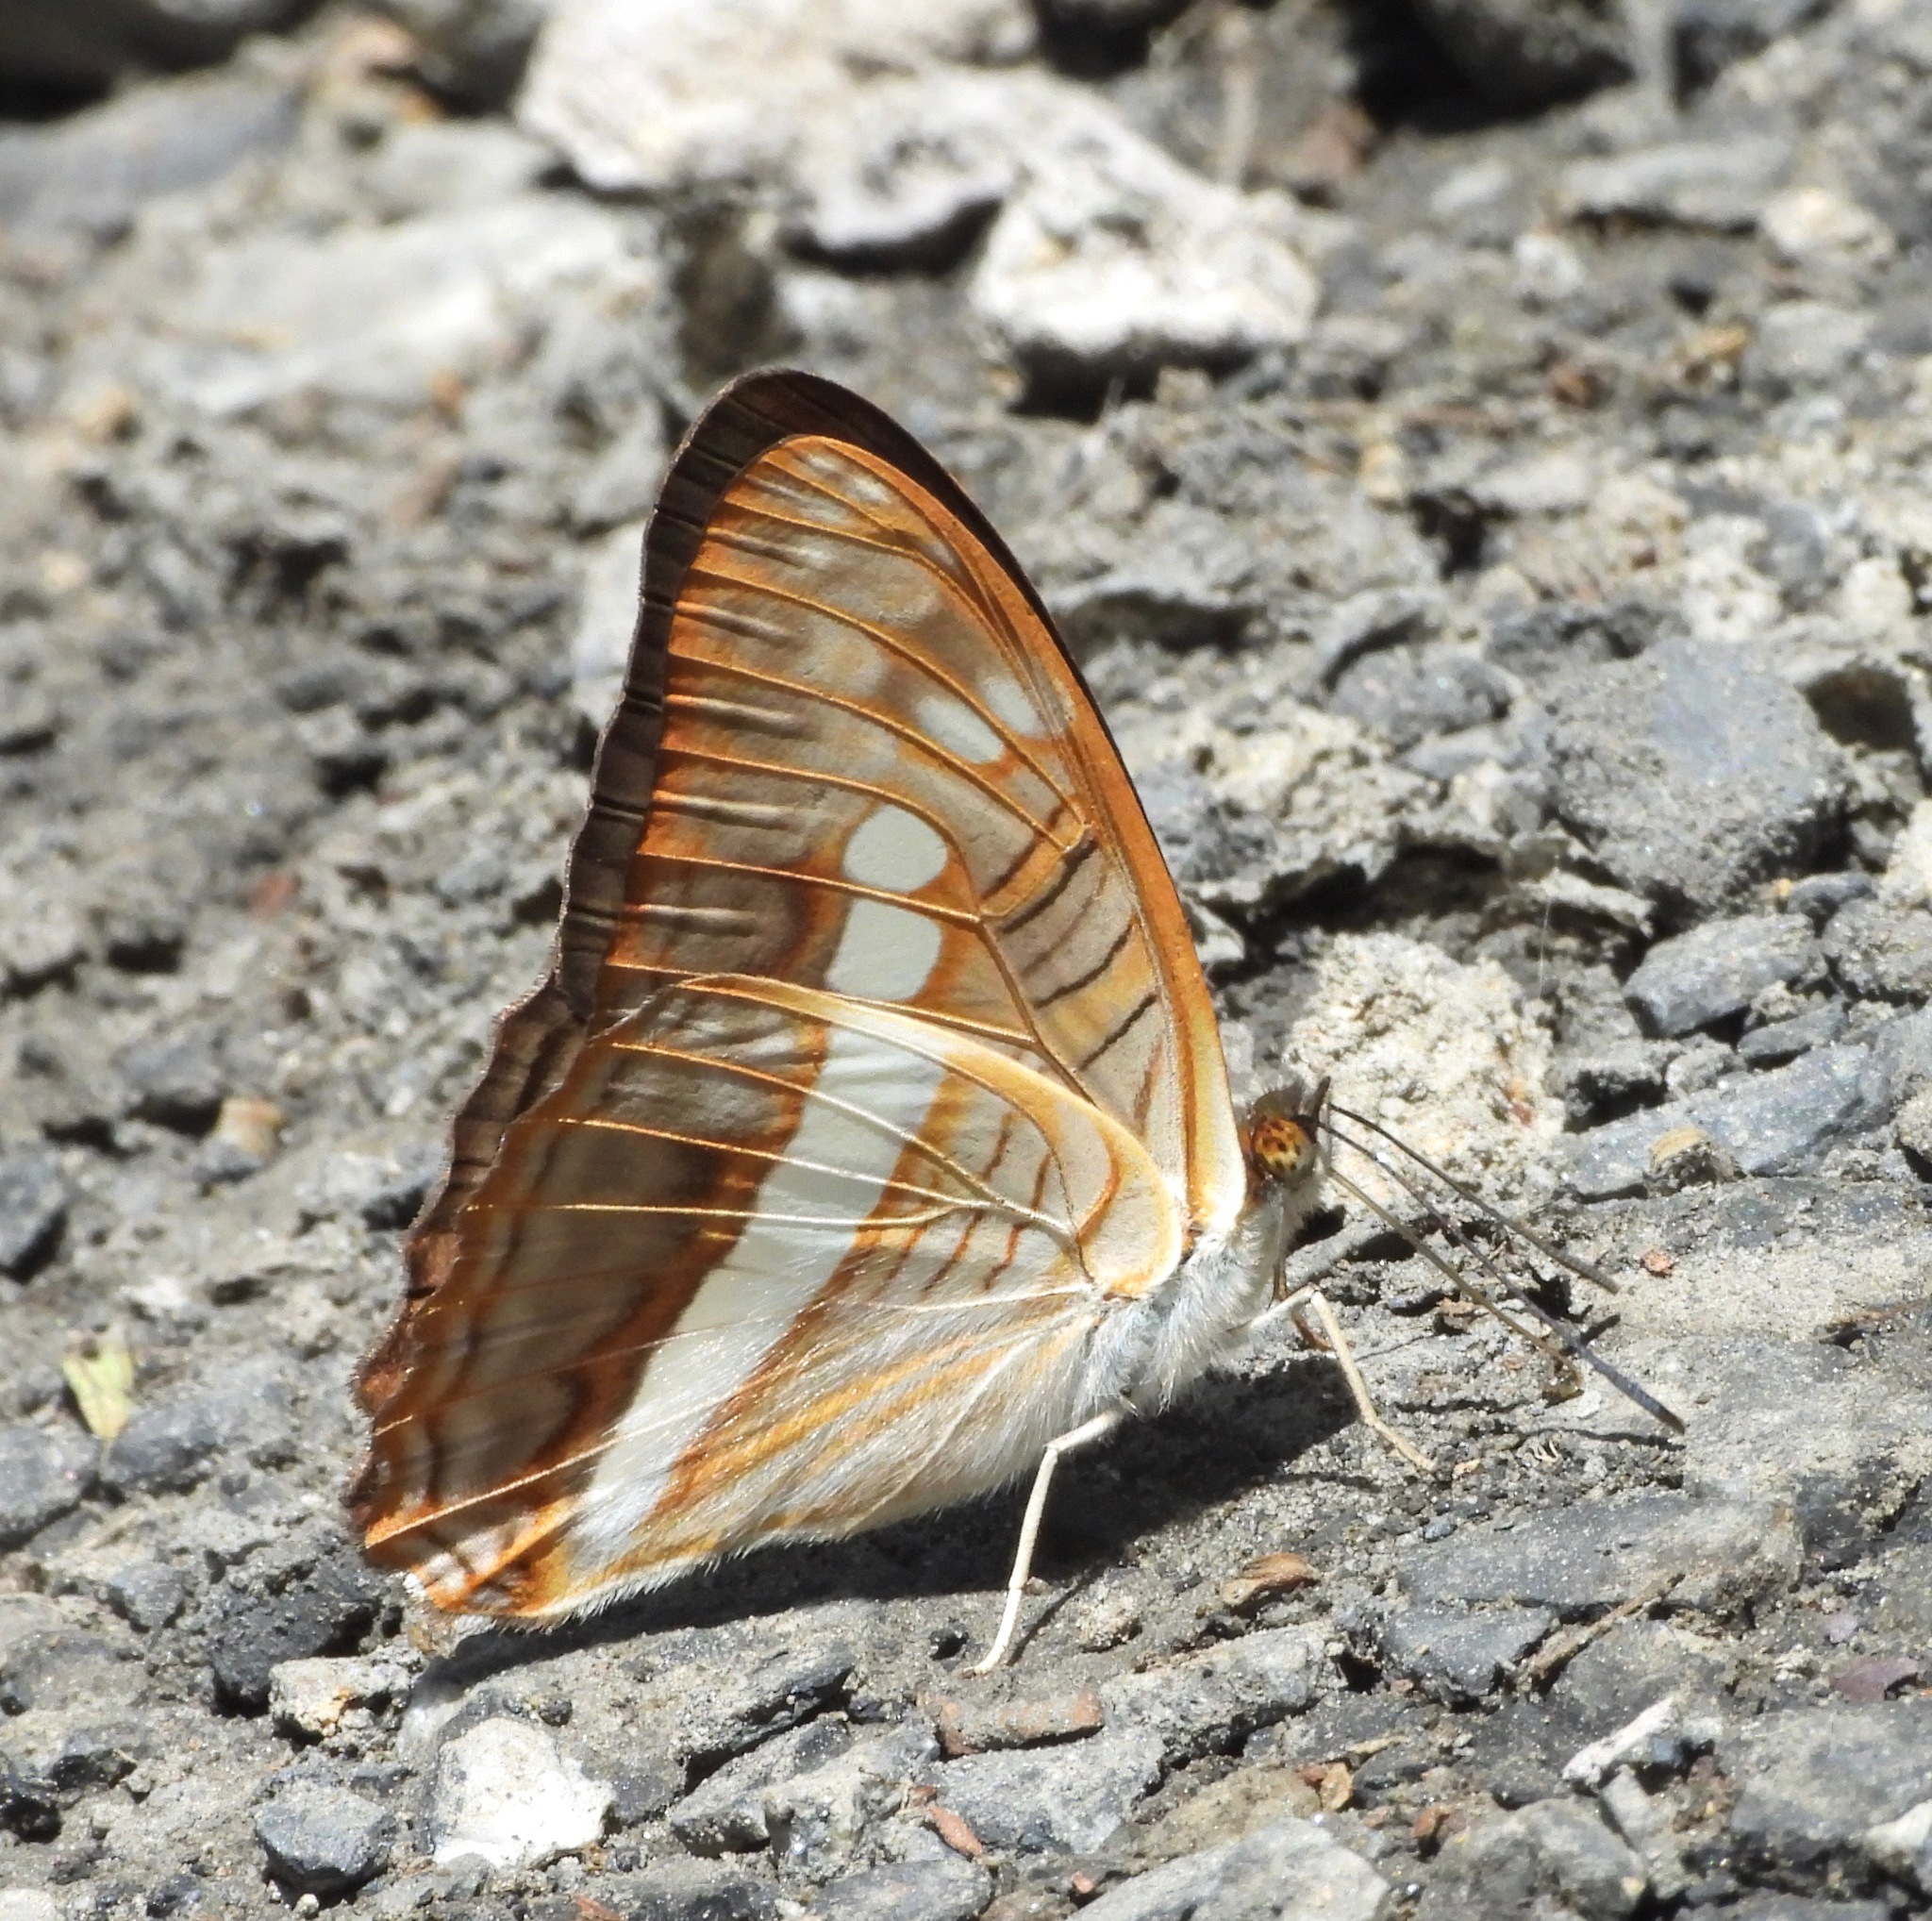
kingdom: Animalia
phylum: Arthropoda
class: Insecta
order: Lepidoptera
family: Nymphalidae
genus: Limenitis
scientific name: Limenitis alala
